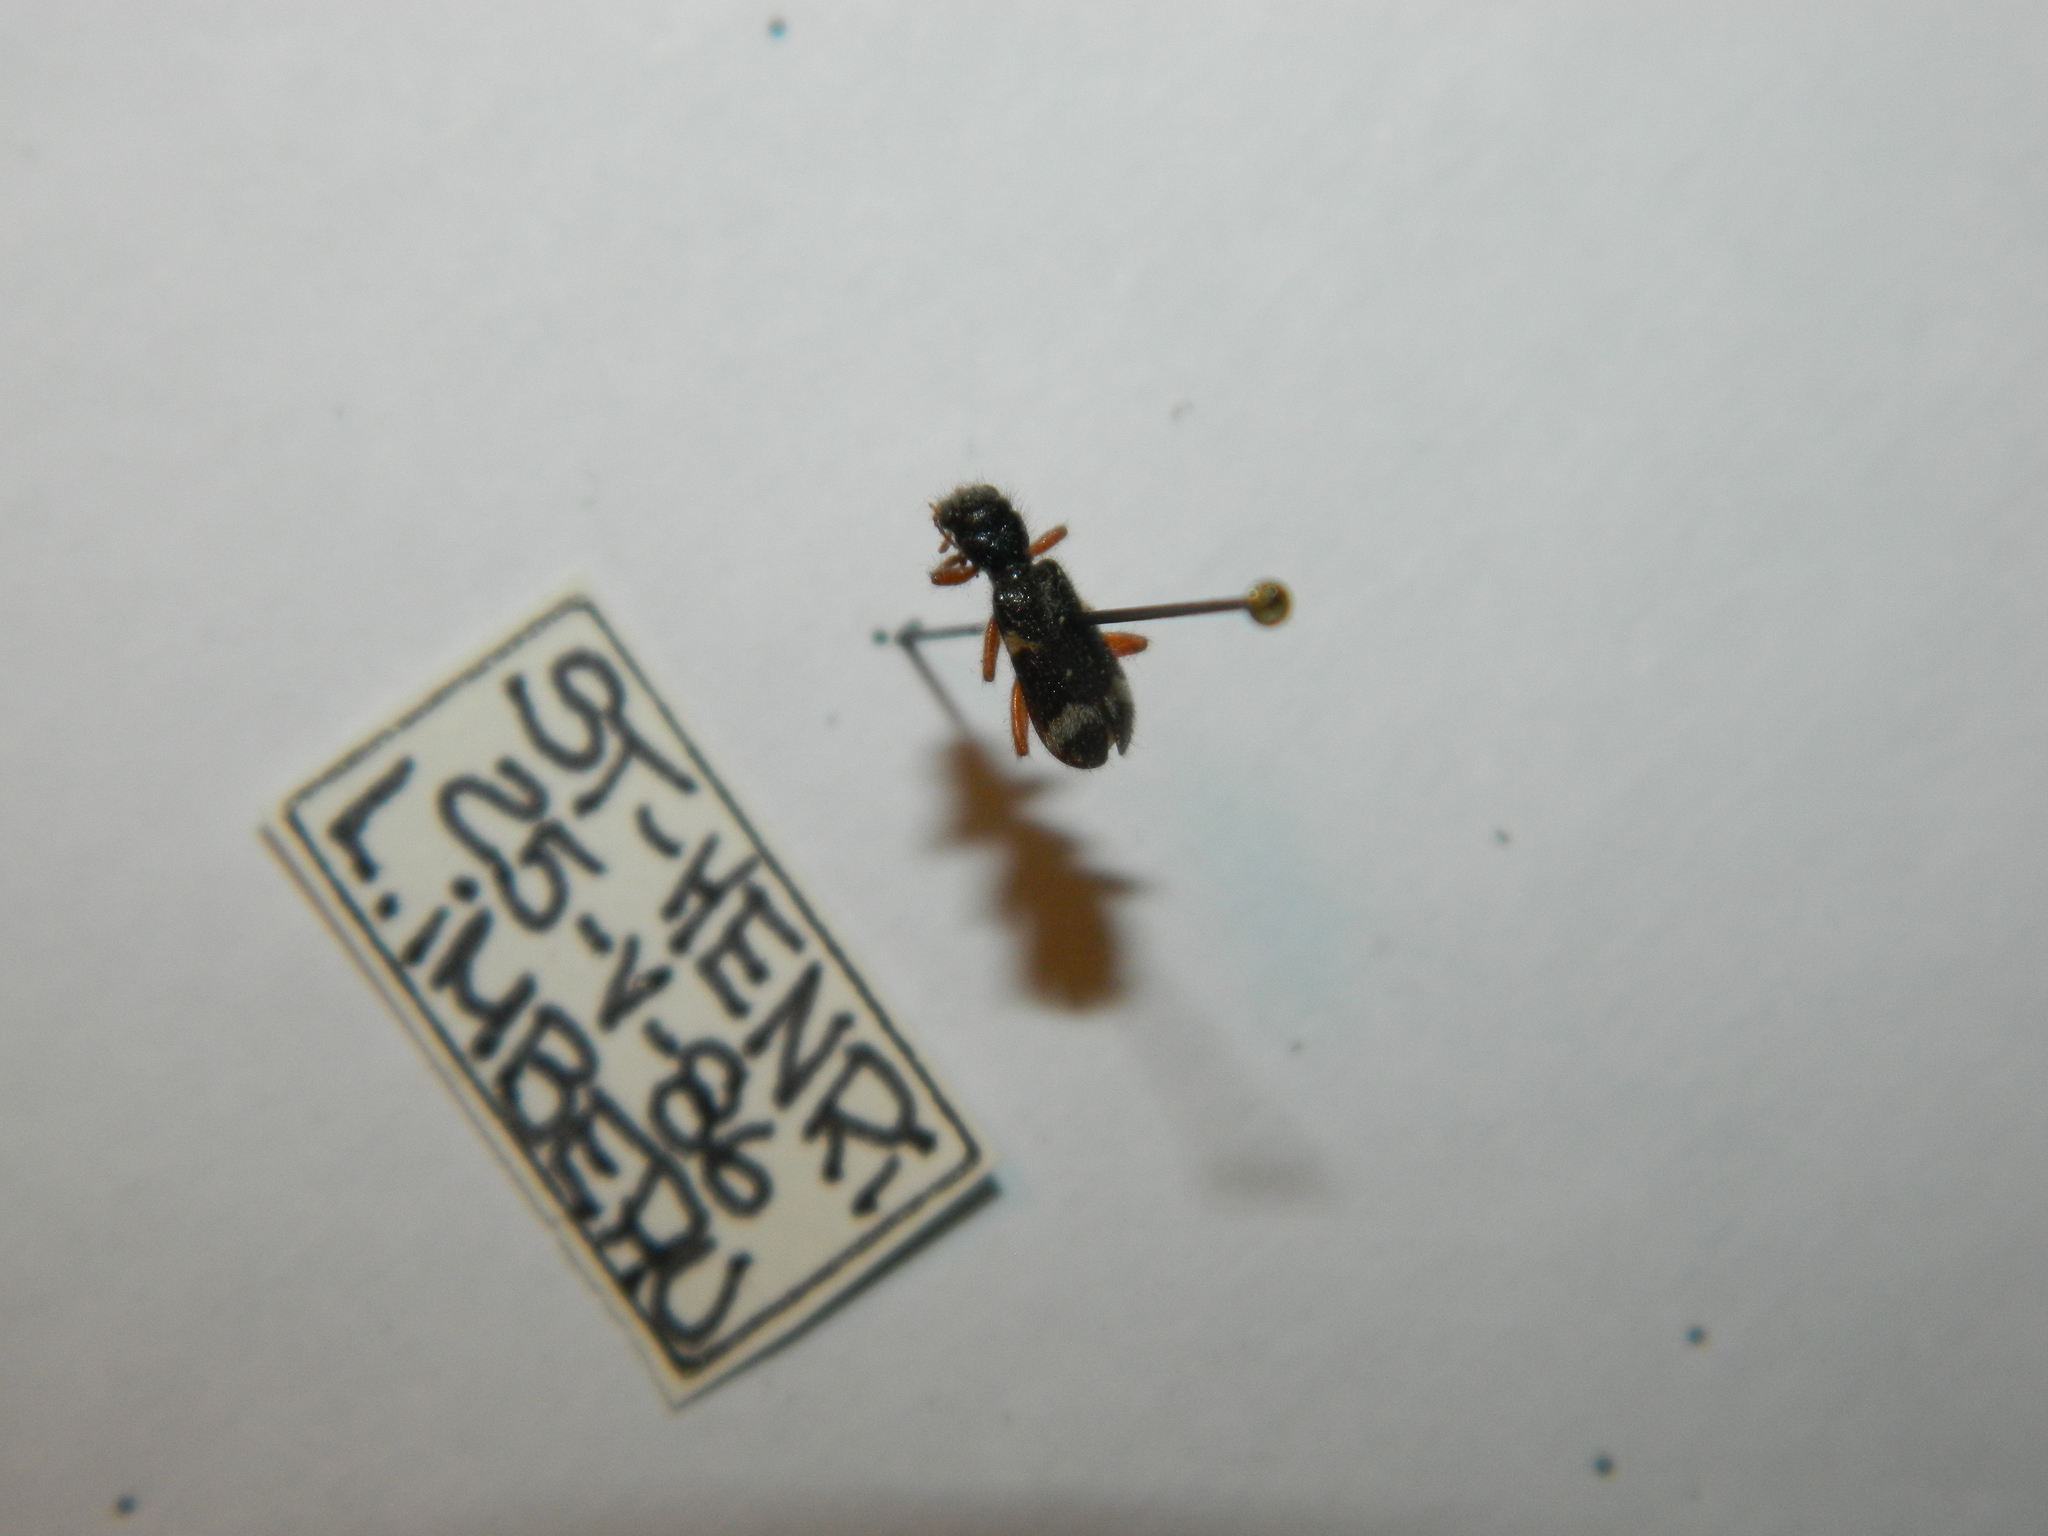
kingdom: Animalia
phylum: Arthropoda
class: Insecta
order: Coleoptera
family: Cleridae
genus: Thanasimus
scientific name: Thanasimus undatulus
